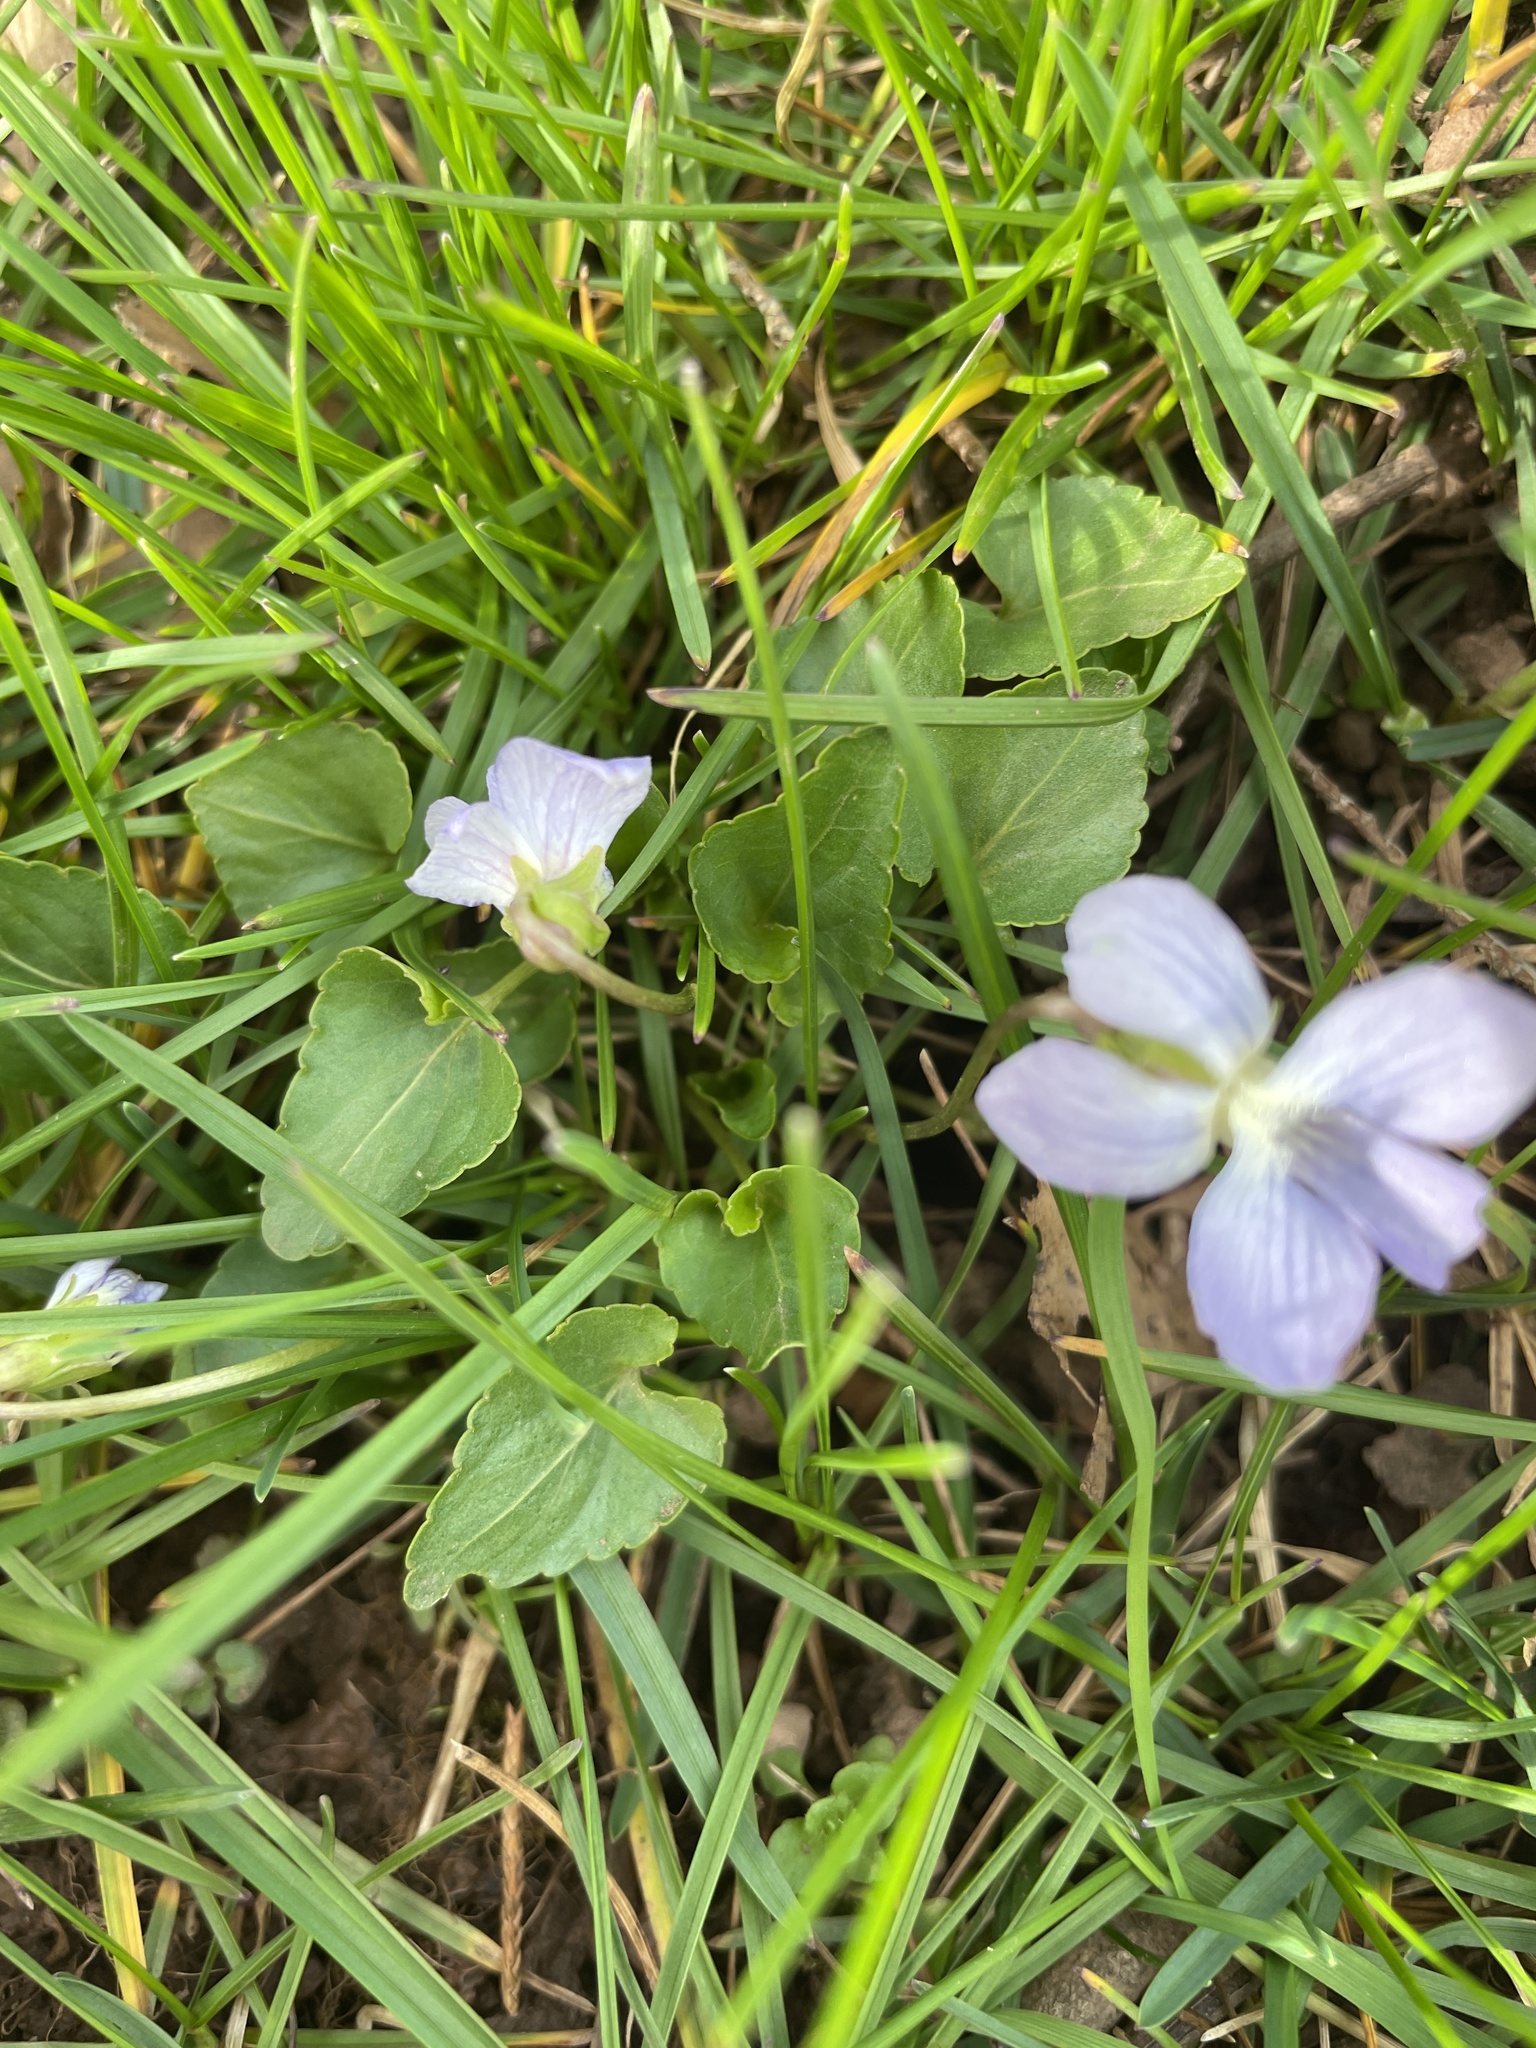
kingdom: Plantae
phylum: Tracheophyta
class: Magnoliopsida
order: Malpighiales
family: Violaceae
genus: Viola
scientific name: Viola sororia
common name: Dooryard violet
